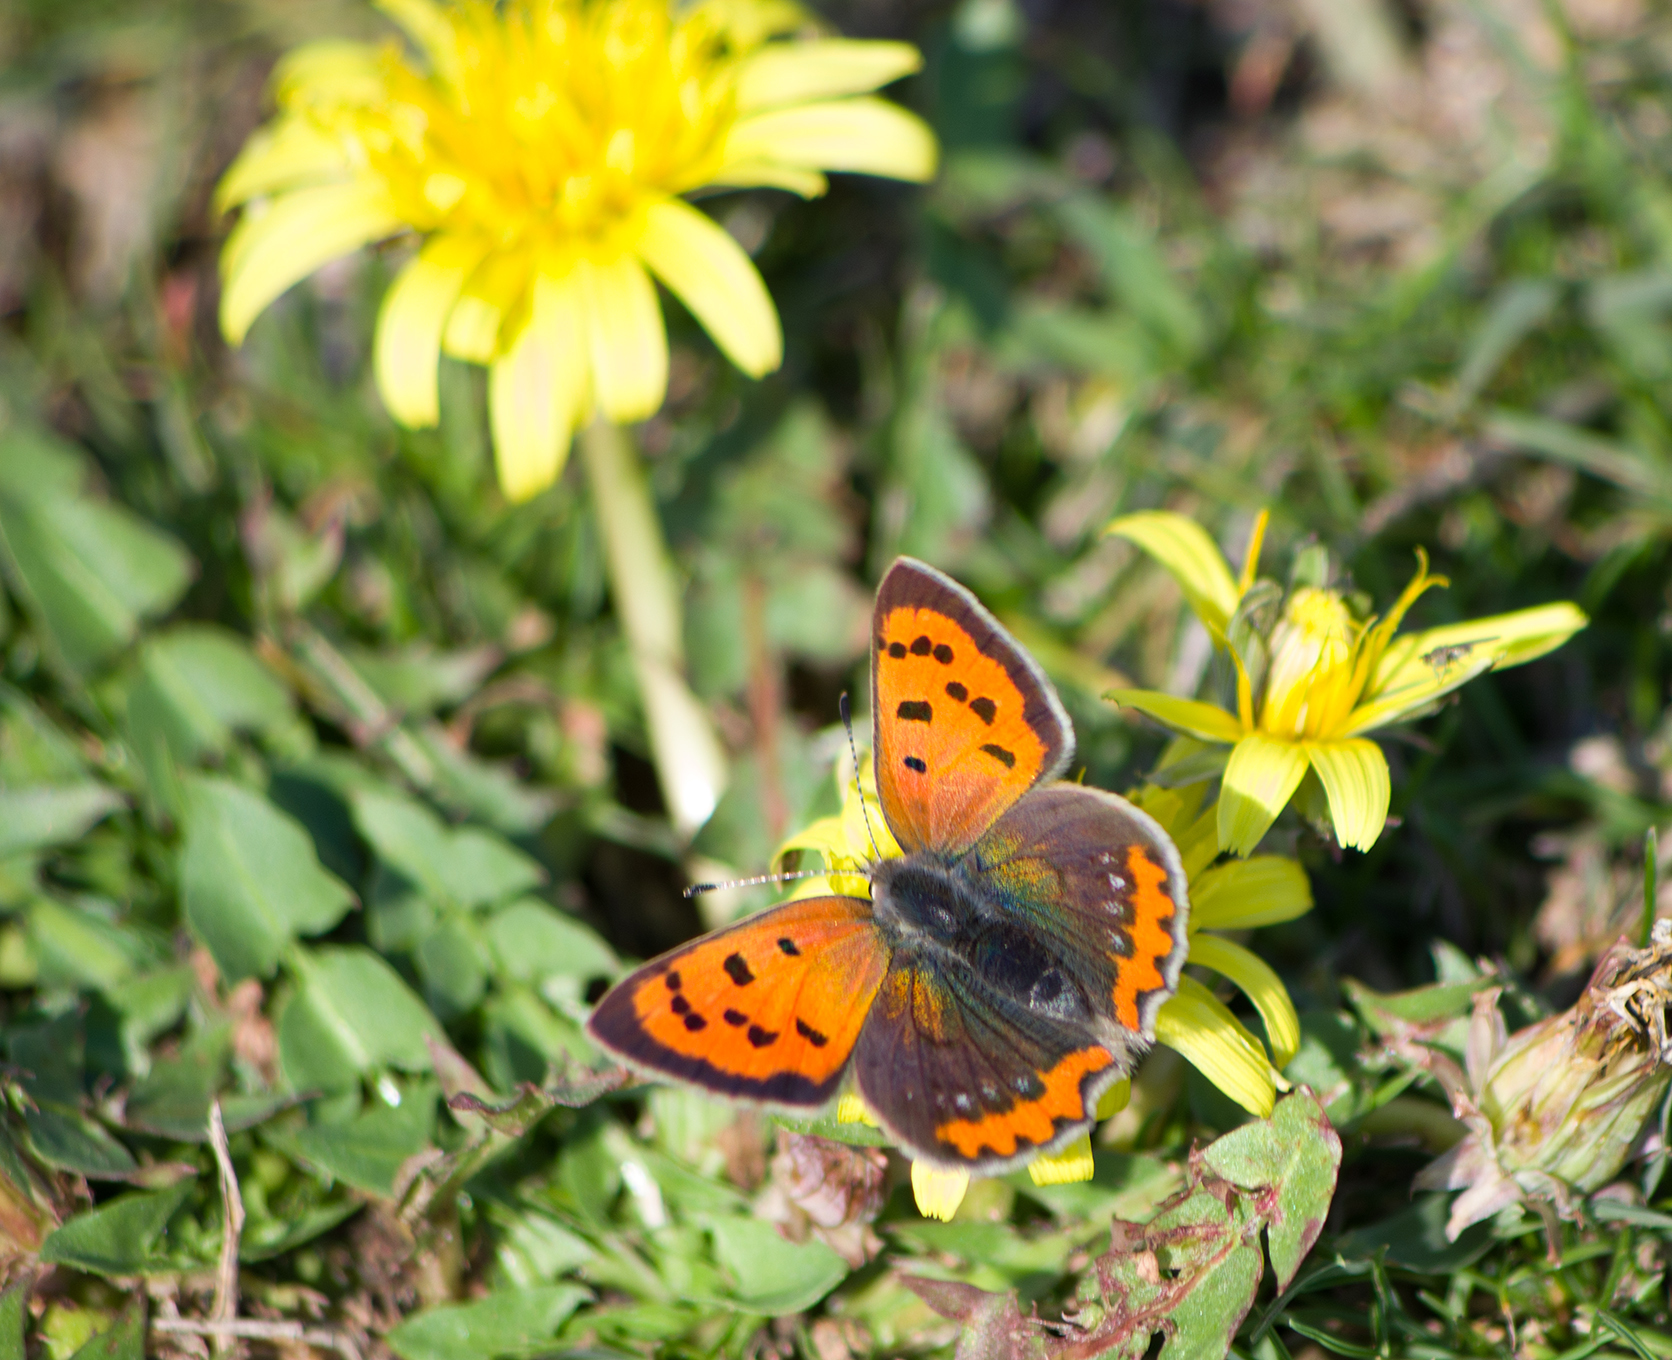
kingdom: Animalia
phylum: Arthropoda
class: Insecta
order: Lepidoptera
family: Lycaenidae
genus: Lycaena
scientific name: Lycaena phlaeas
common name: Small copper
